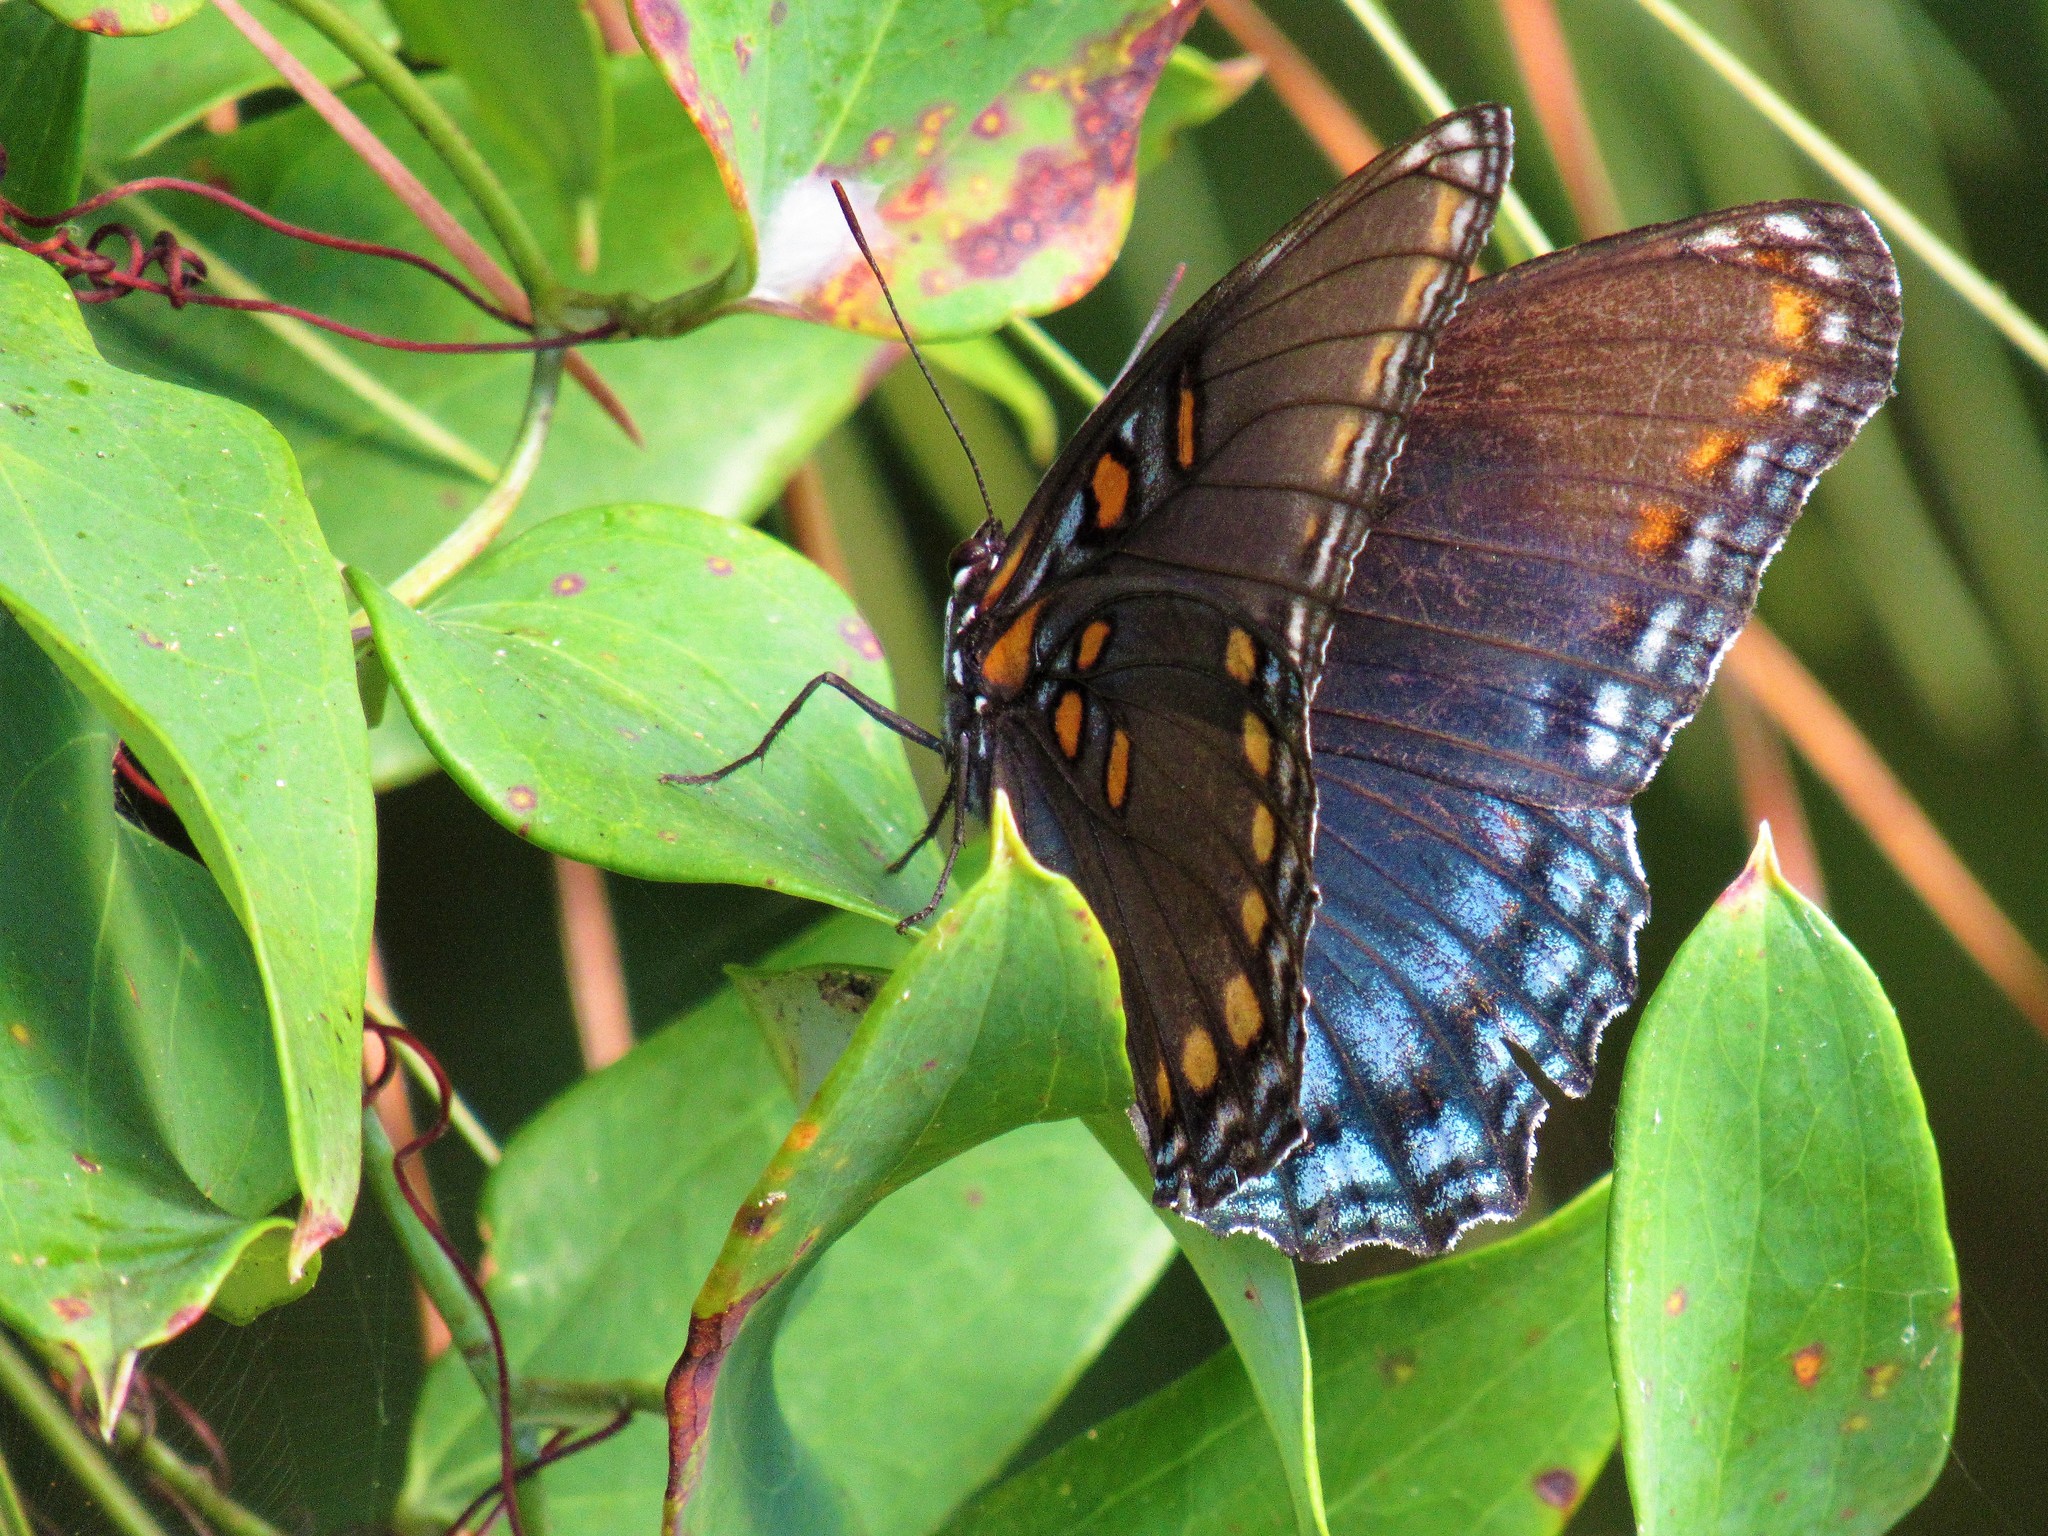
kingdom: Animalia
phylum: Arthropoda
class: Insecta
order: Lepidoptera
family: Nymphalidae
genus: Limenitis
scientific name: Limenitis astyanax
